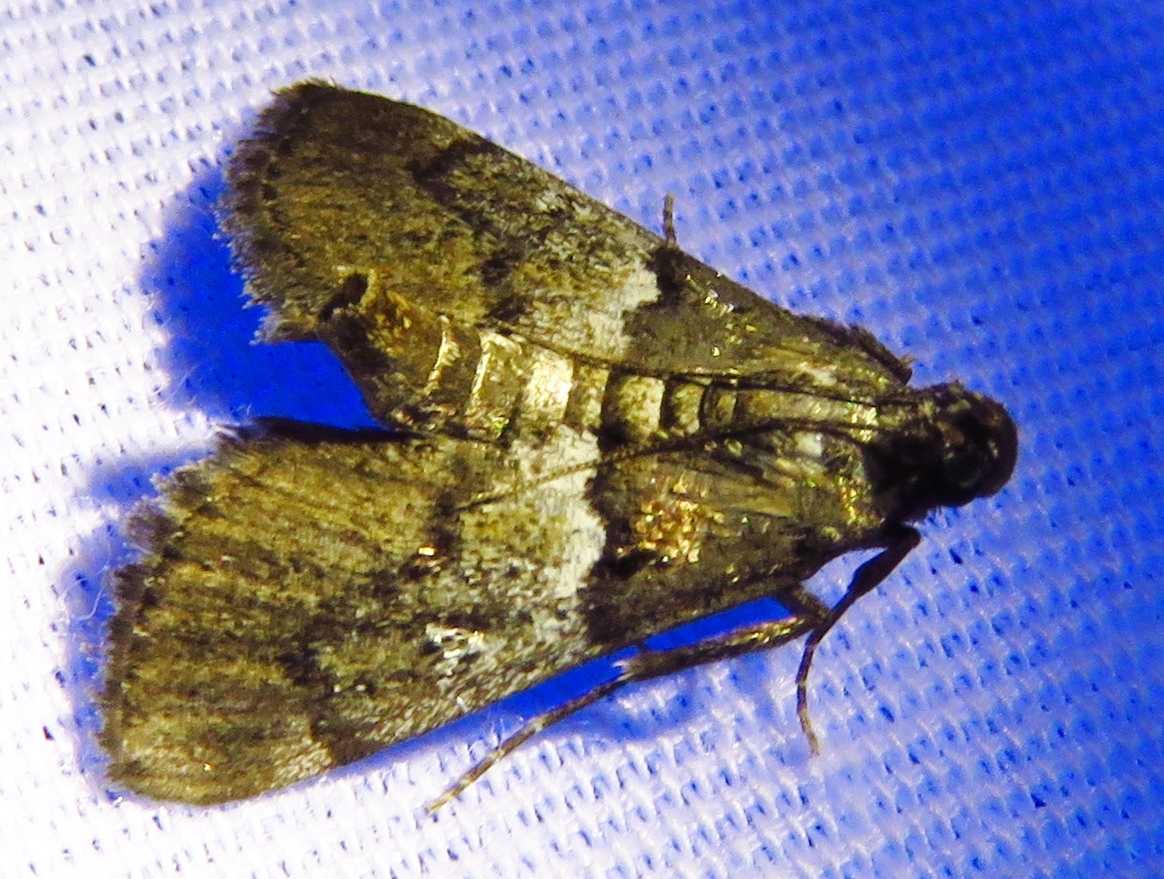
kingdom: Animalia
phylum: Arthropoda
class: Insecta
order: Lepidoptera
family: Pyralidae
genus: Macalla
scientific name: Macalla zelleri
